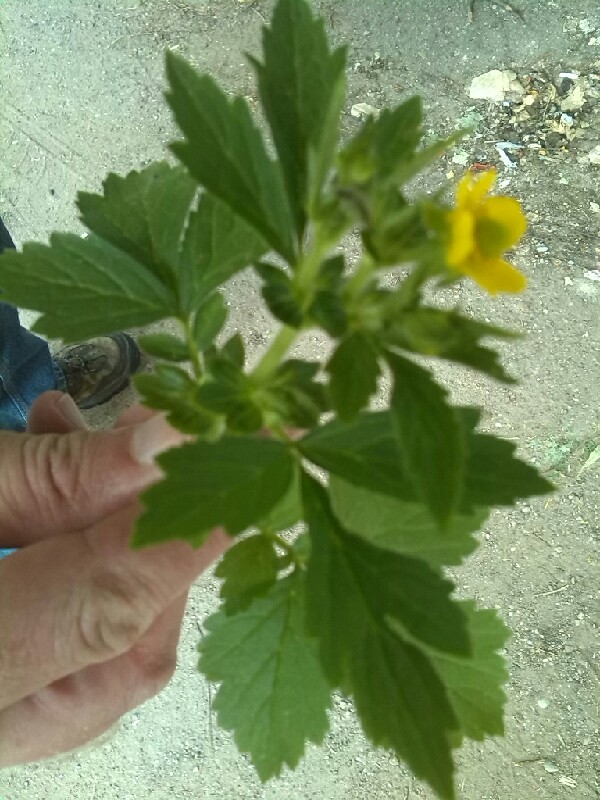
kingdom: Plantae
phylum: Tracheophyta
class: Magnoliopsida
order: Rosales
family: Rosaceae
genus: Geum
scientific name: Geum aleppicum
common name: Yellow avens
